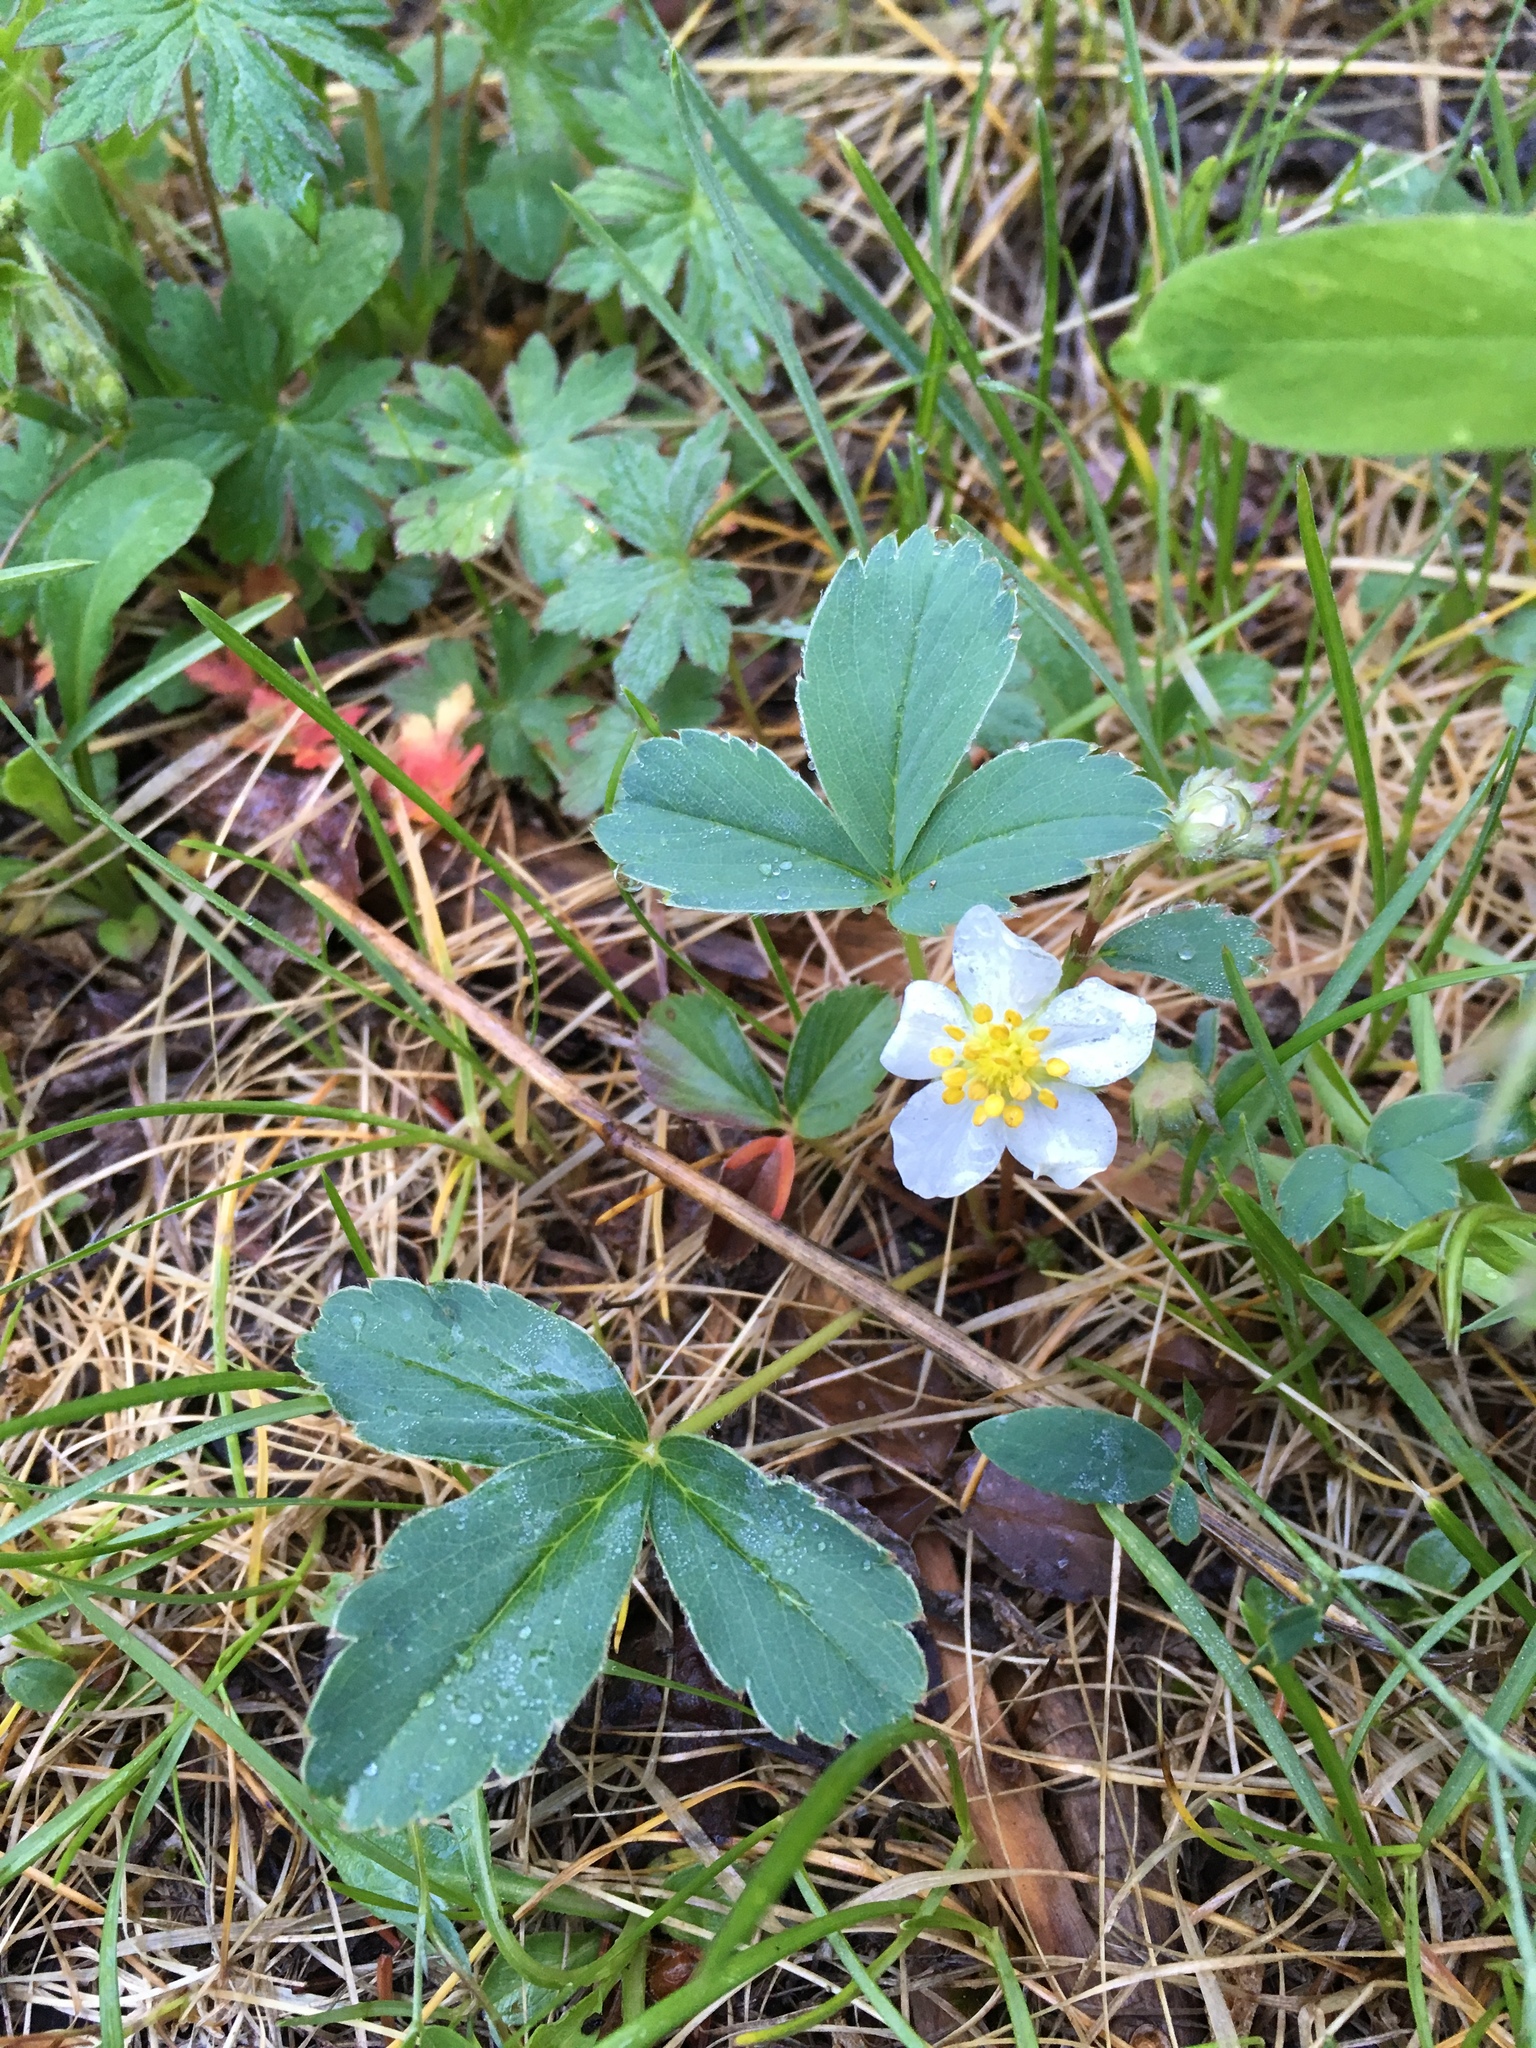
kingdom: Plantae
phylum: Tracheophyta
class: Magnoliopsida
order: Rosales
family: Rosaceae
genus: Fragaria
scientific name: Fragaria virginiana
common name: Thickleaved wild strawberry
